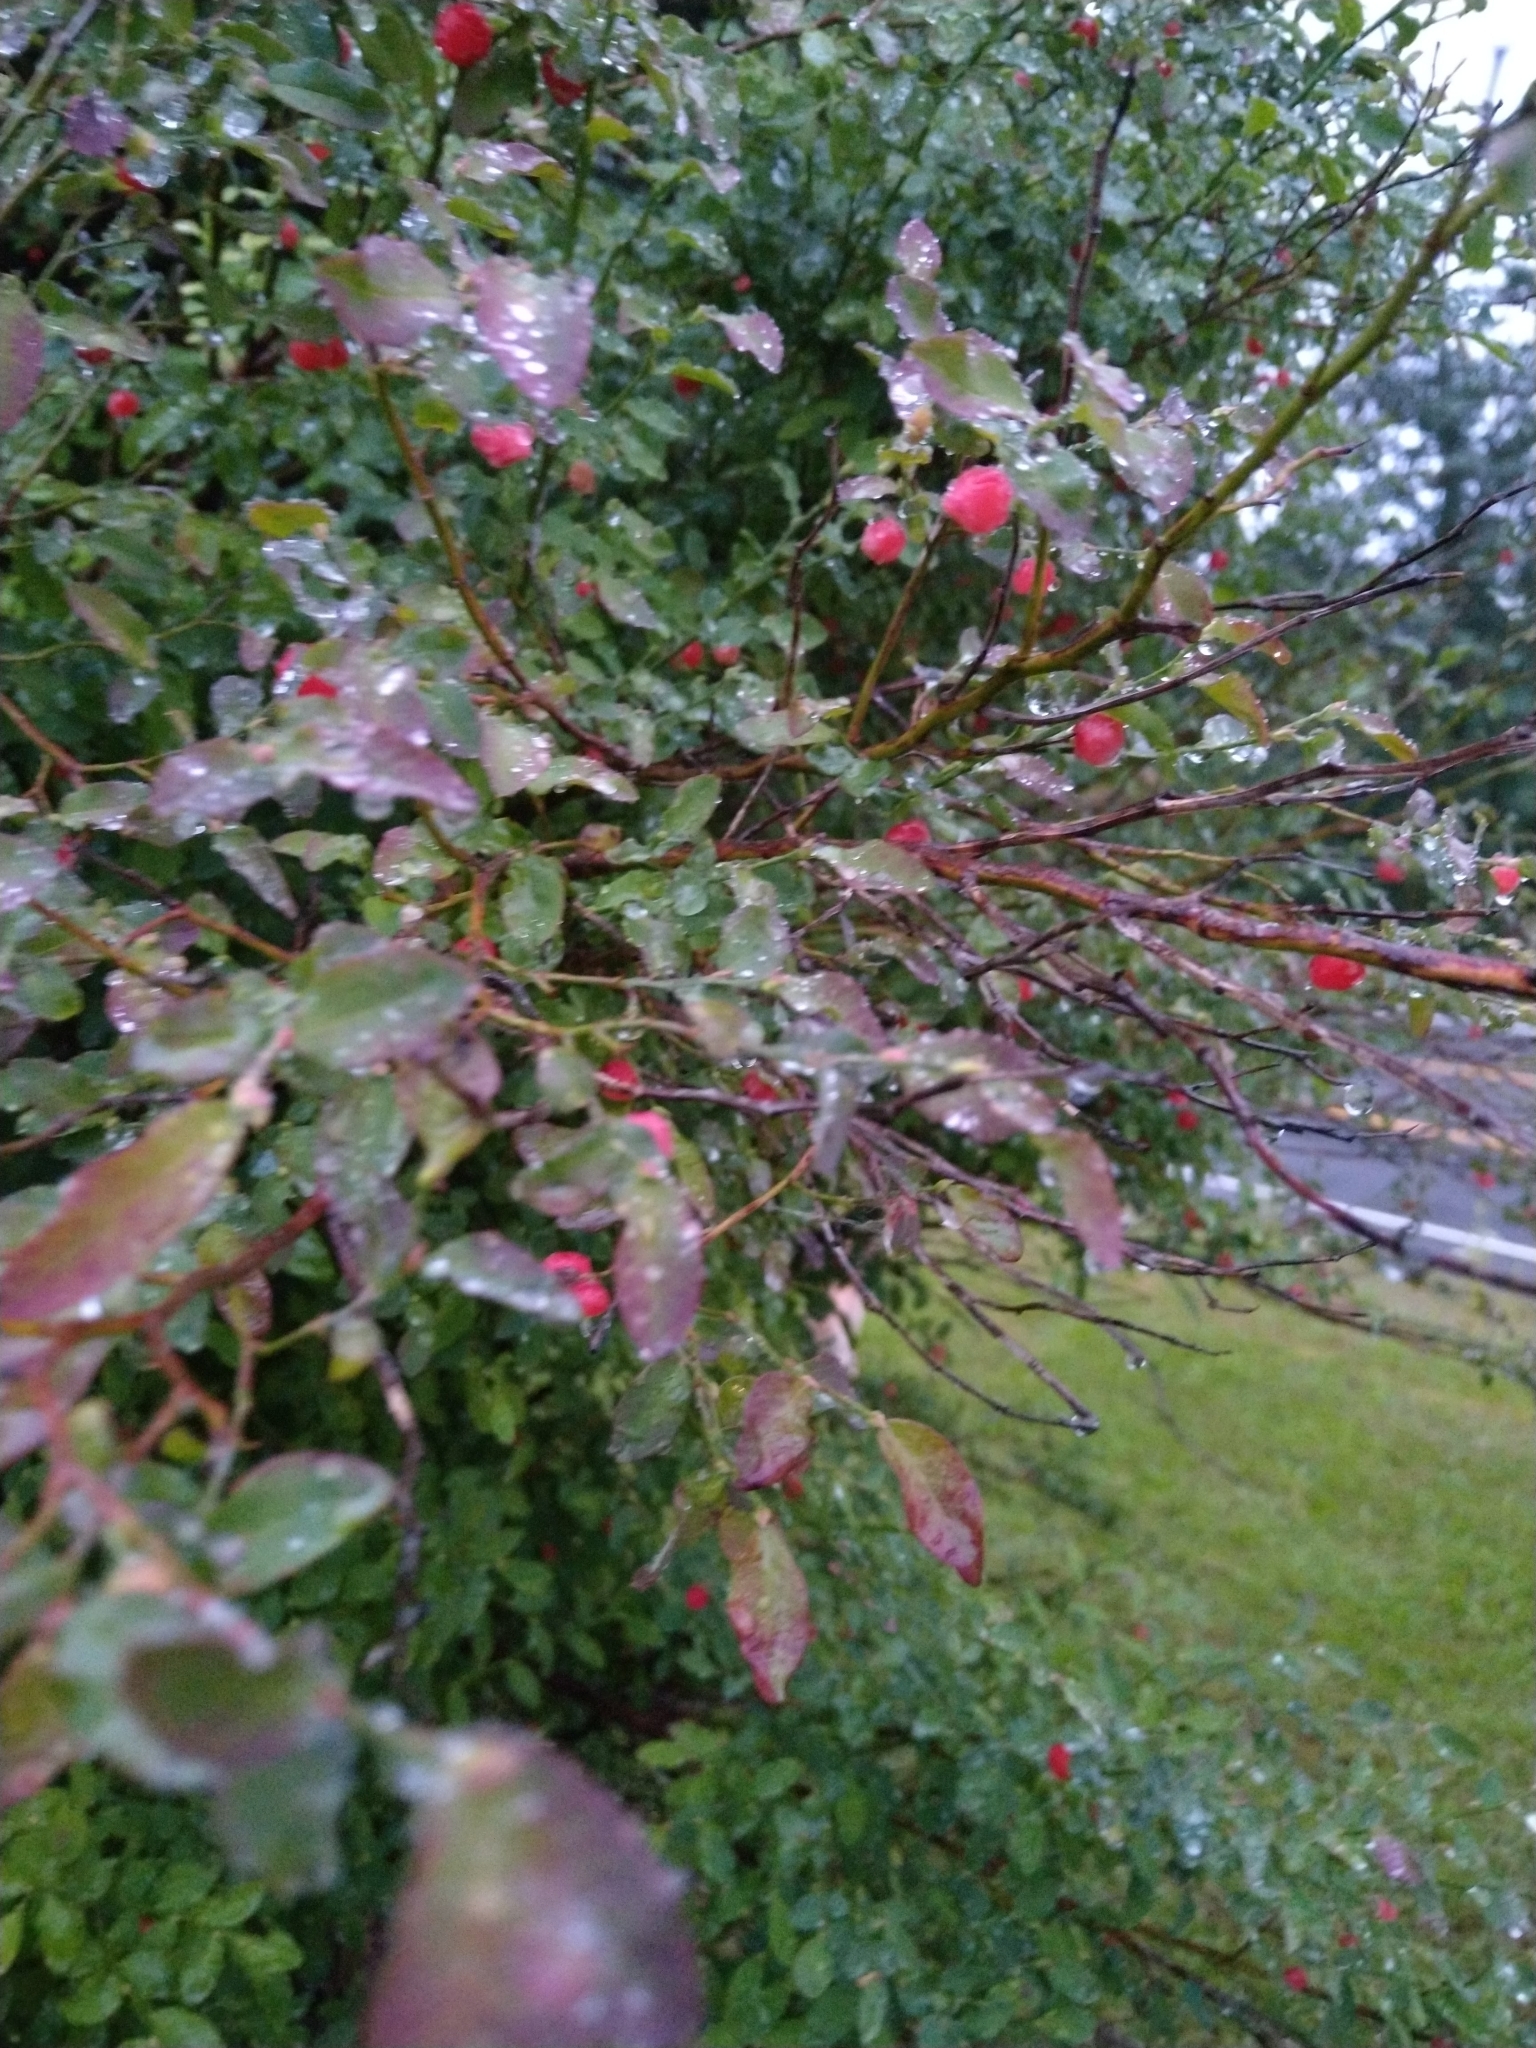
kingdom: Plantae
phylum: Tracheophyta
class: Magnoliopsida
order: Ericales
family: Ericaceae
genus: Vaccinium
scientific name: Vaccinium parvifolium
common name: Red-huckleberry
